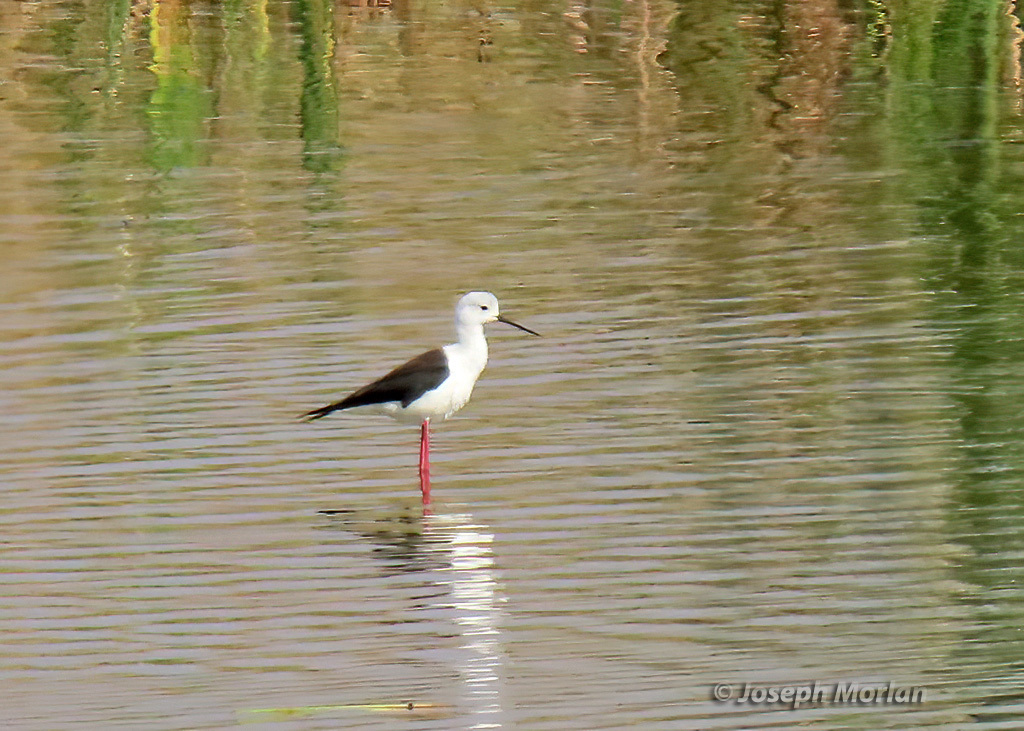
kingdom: Animalia
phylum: Chordata
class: Aves
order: Charadriiformes
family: Recurvirostridae
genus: Himantopus
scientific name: Himantopus himantopus
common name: Black-winged stilt
